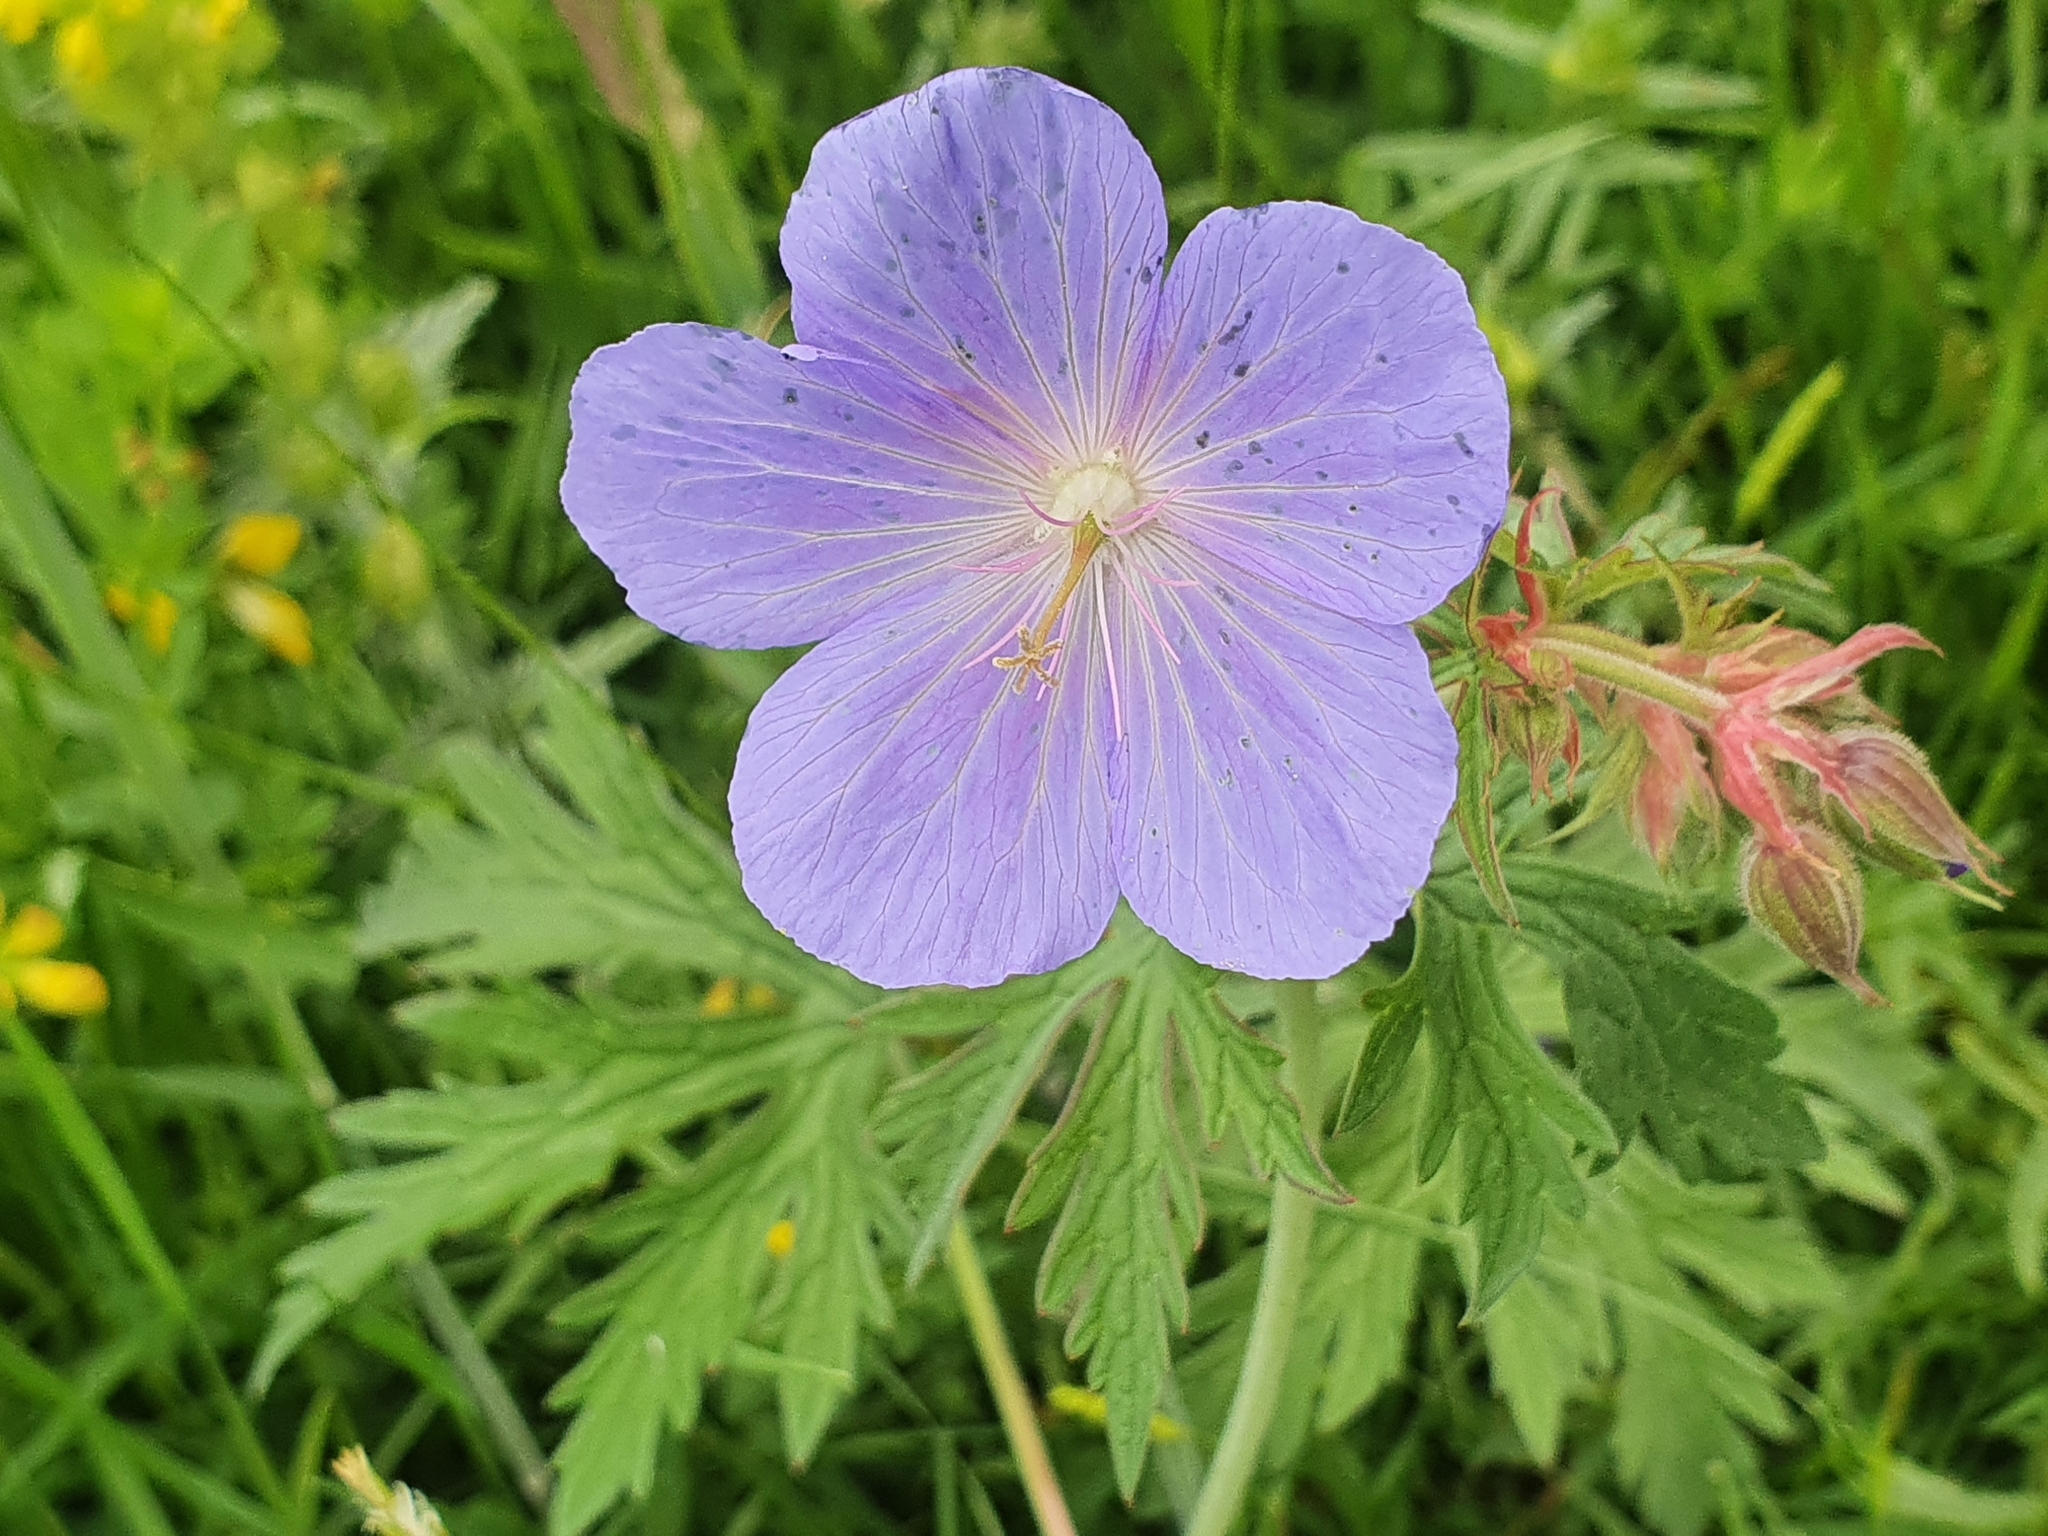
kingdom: Plantae
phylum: Tracheophyta
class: Magnoliopsida
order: Geraniales
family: Geraniaceae
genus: Geranium
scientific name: Geranium pratense
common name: Meadow crane's-bill
